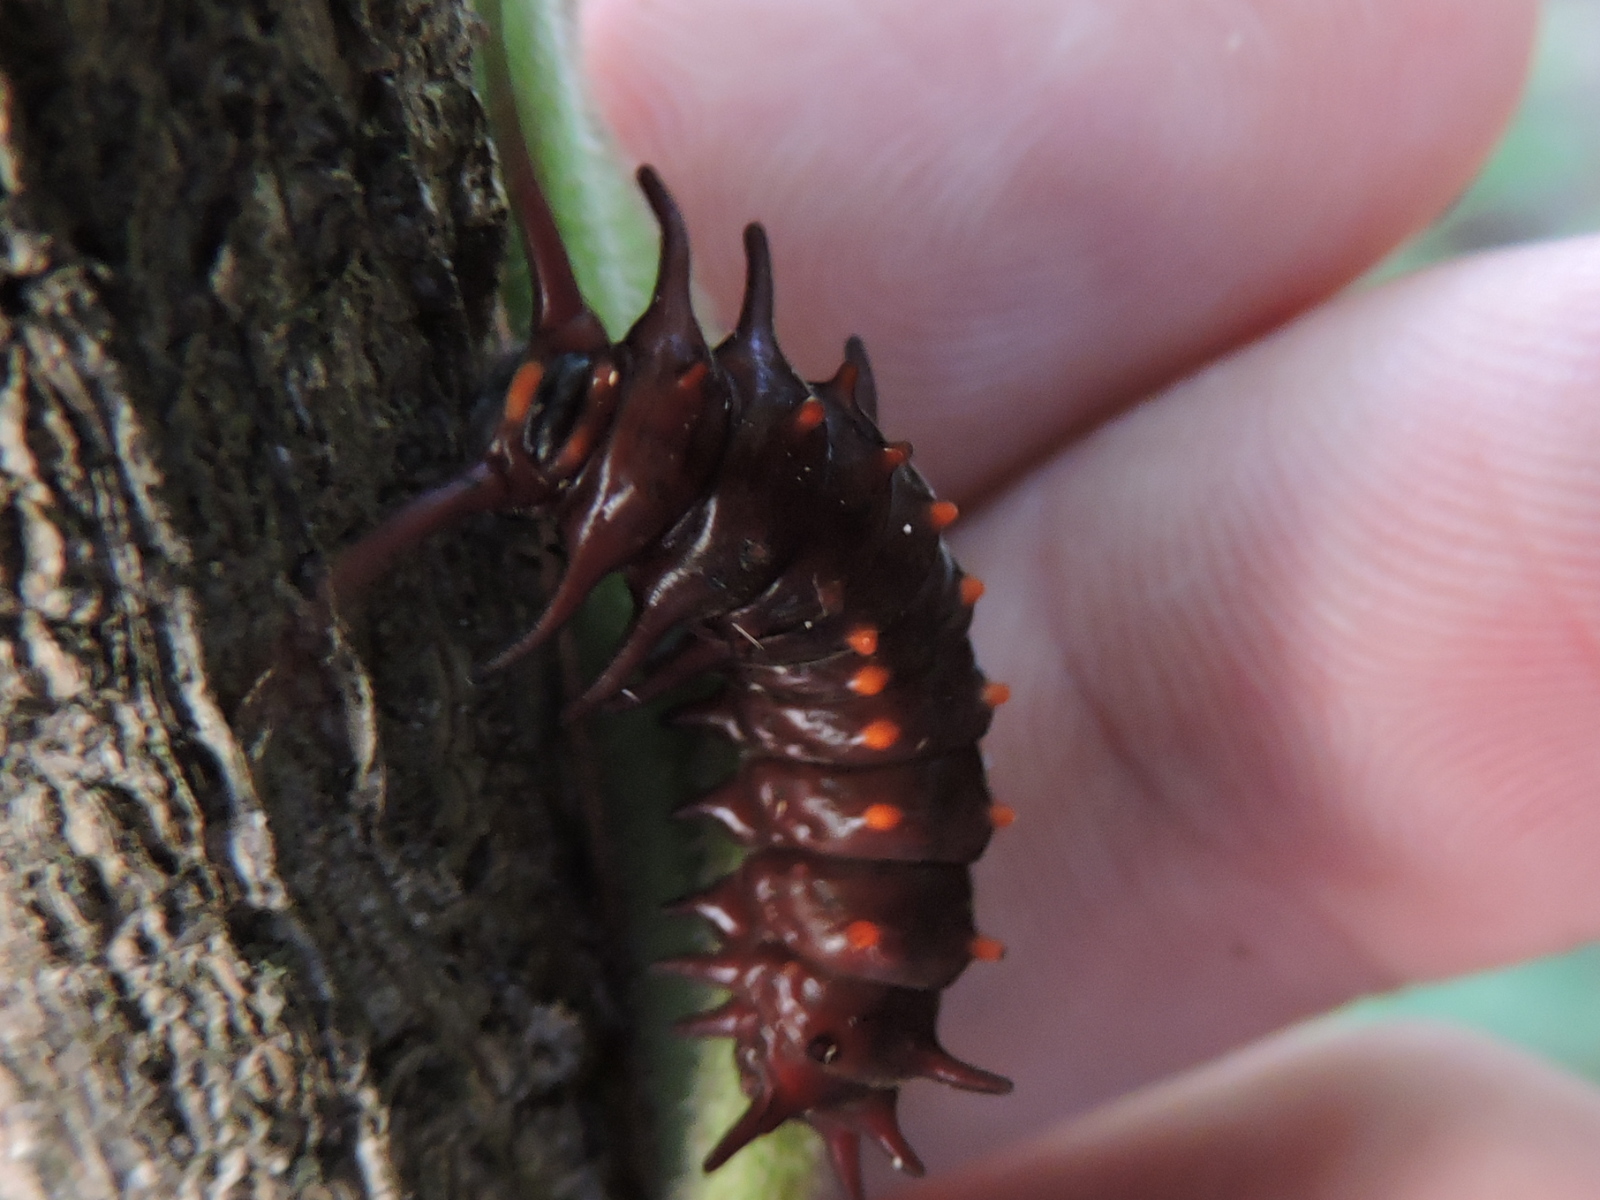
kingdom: Animalia
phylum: Arthropoda
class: Insecta
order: Lepidoptera
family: Papilionidae
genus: Battus
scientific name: Battus philenor
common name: Pipevine swallowtail
